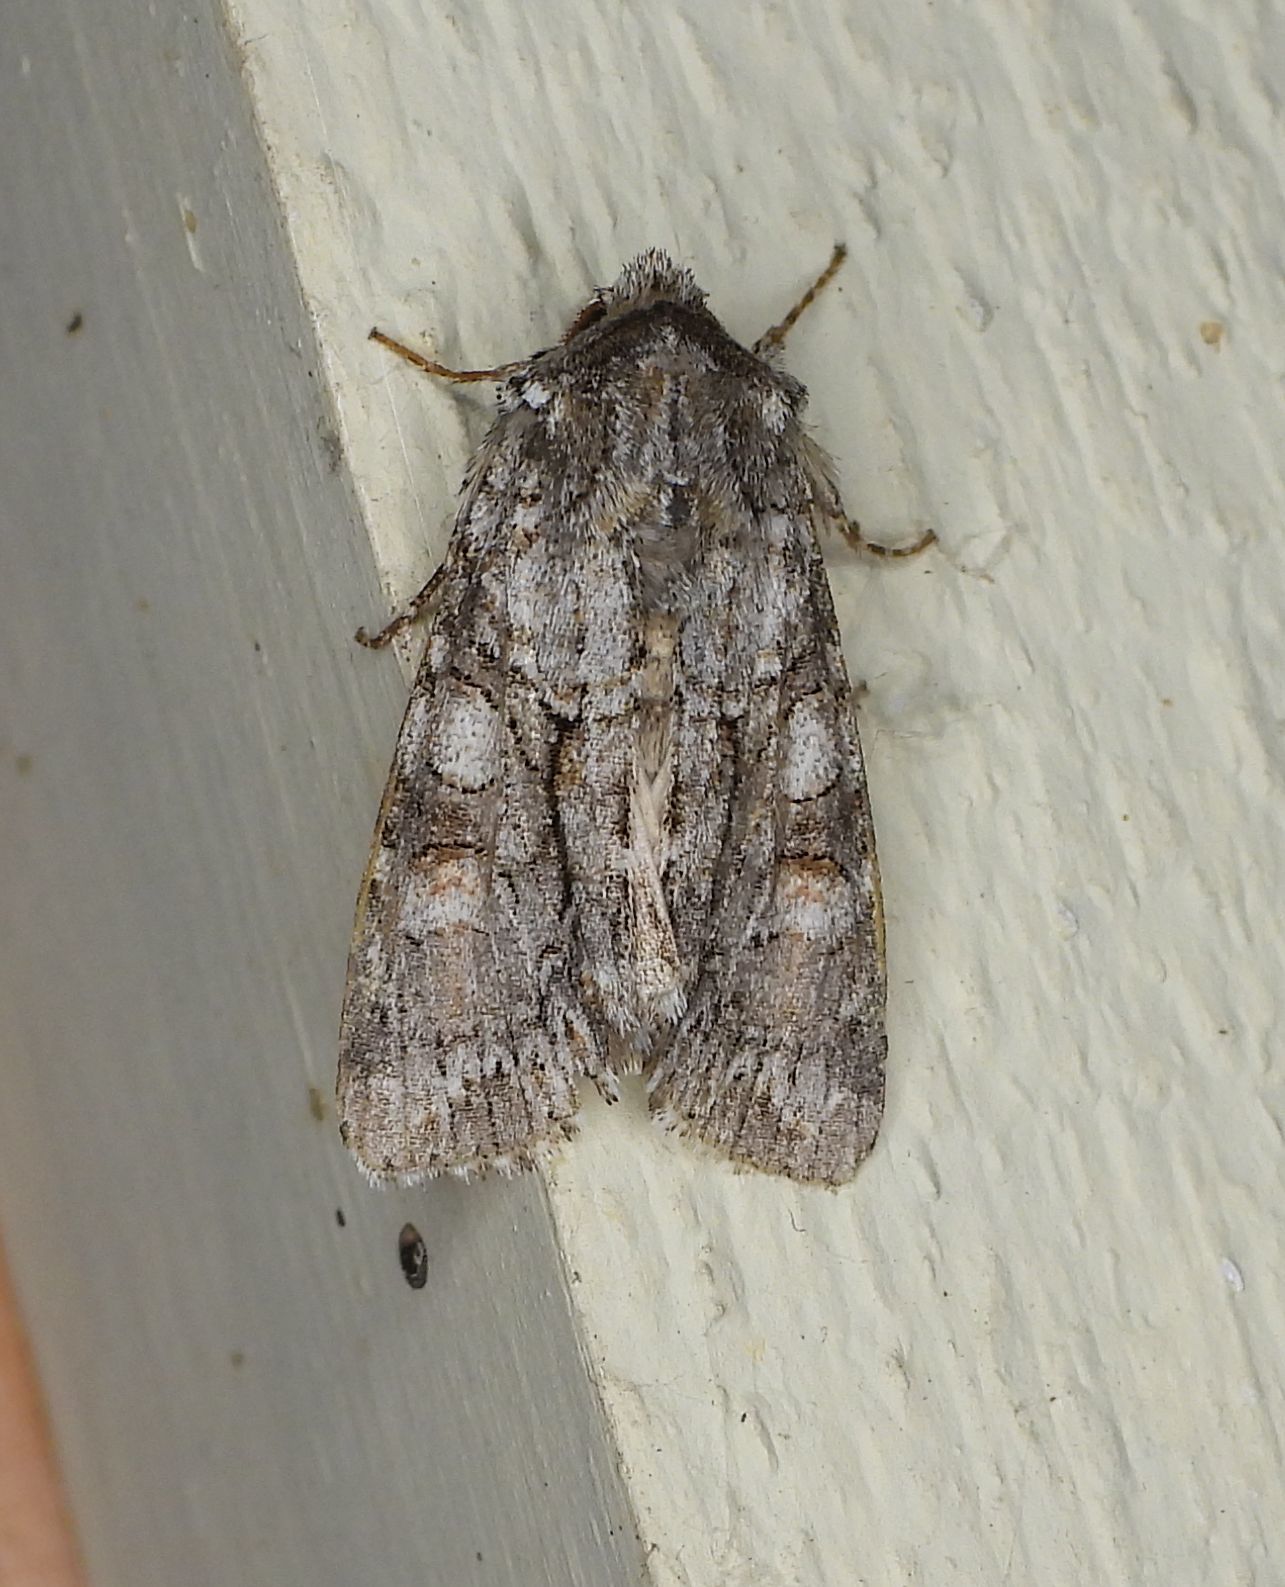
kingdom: Animalia
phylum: Arthropoda
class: Insecta
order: Lepidoptera
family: Noctuidae
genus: Achatia
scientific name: Achatia distincta
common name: Distinct quaker
